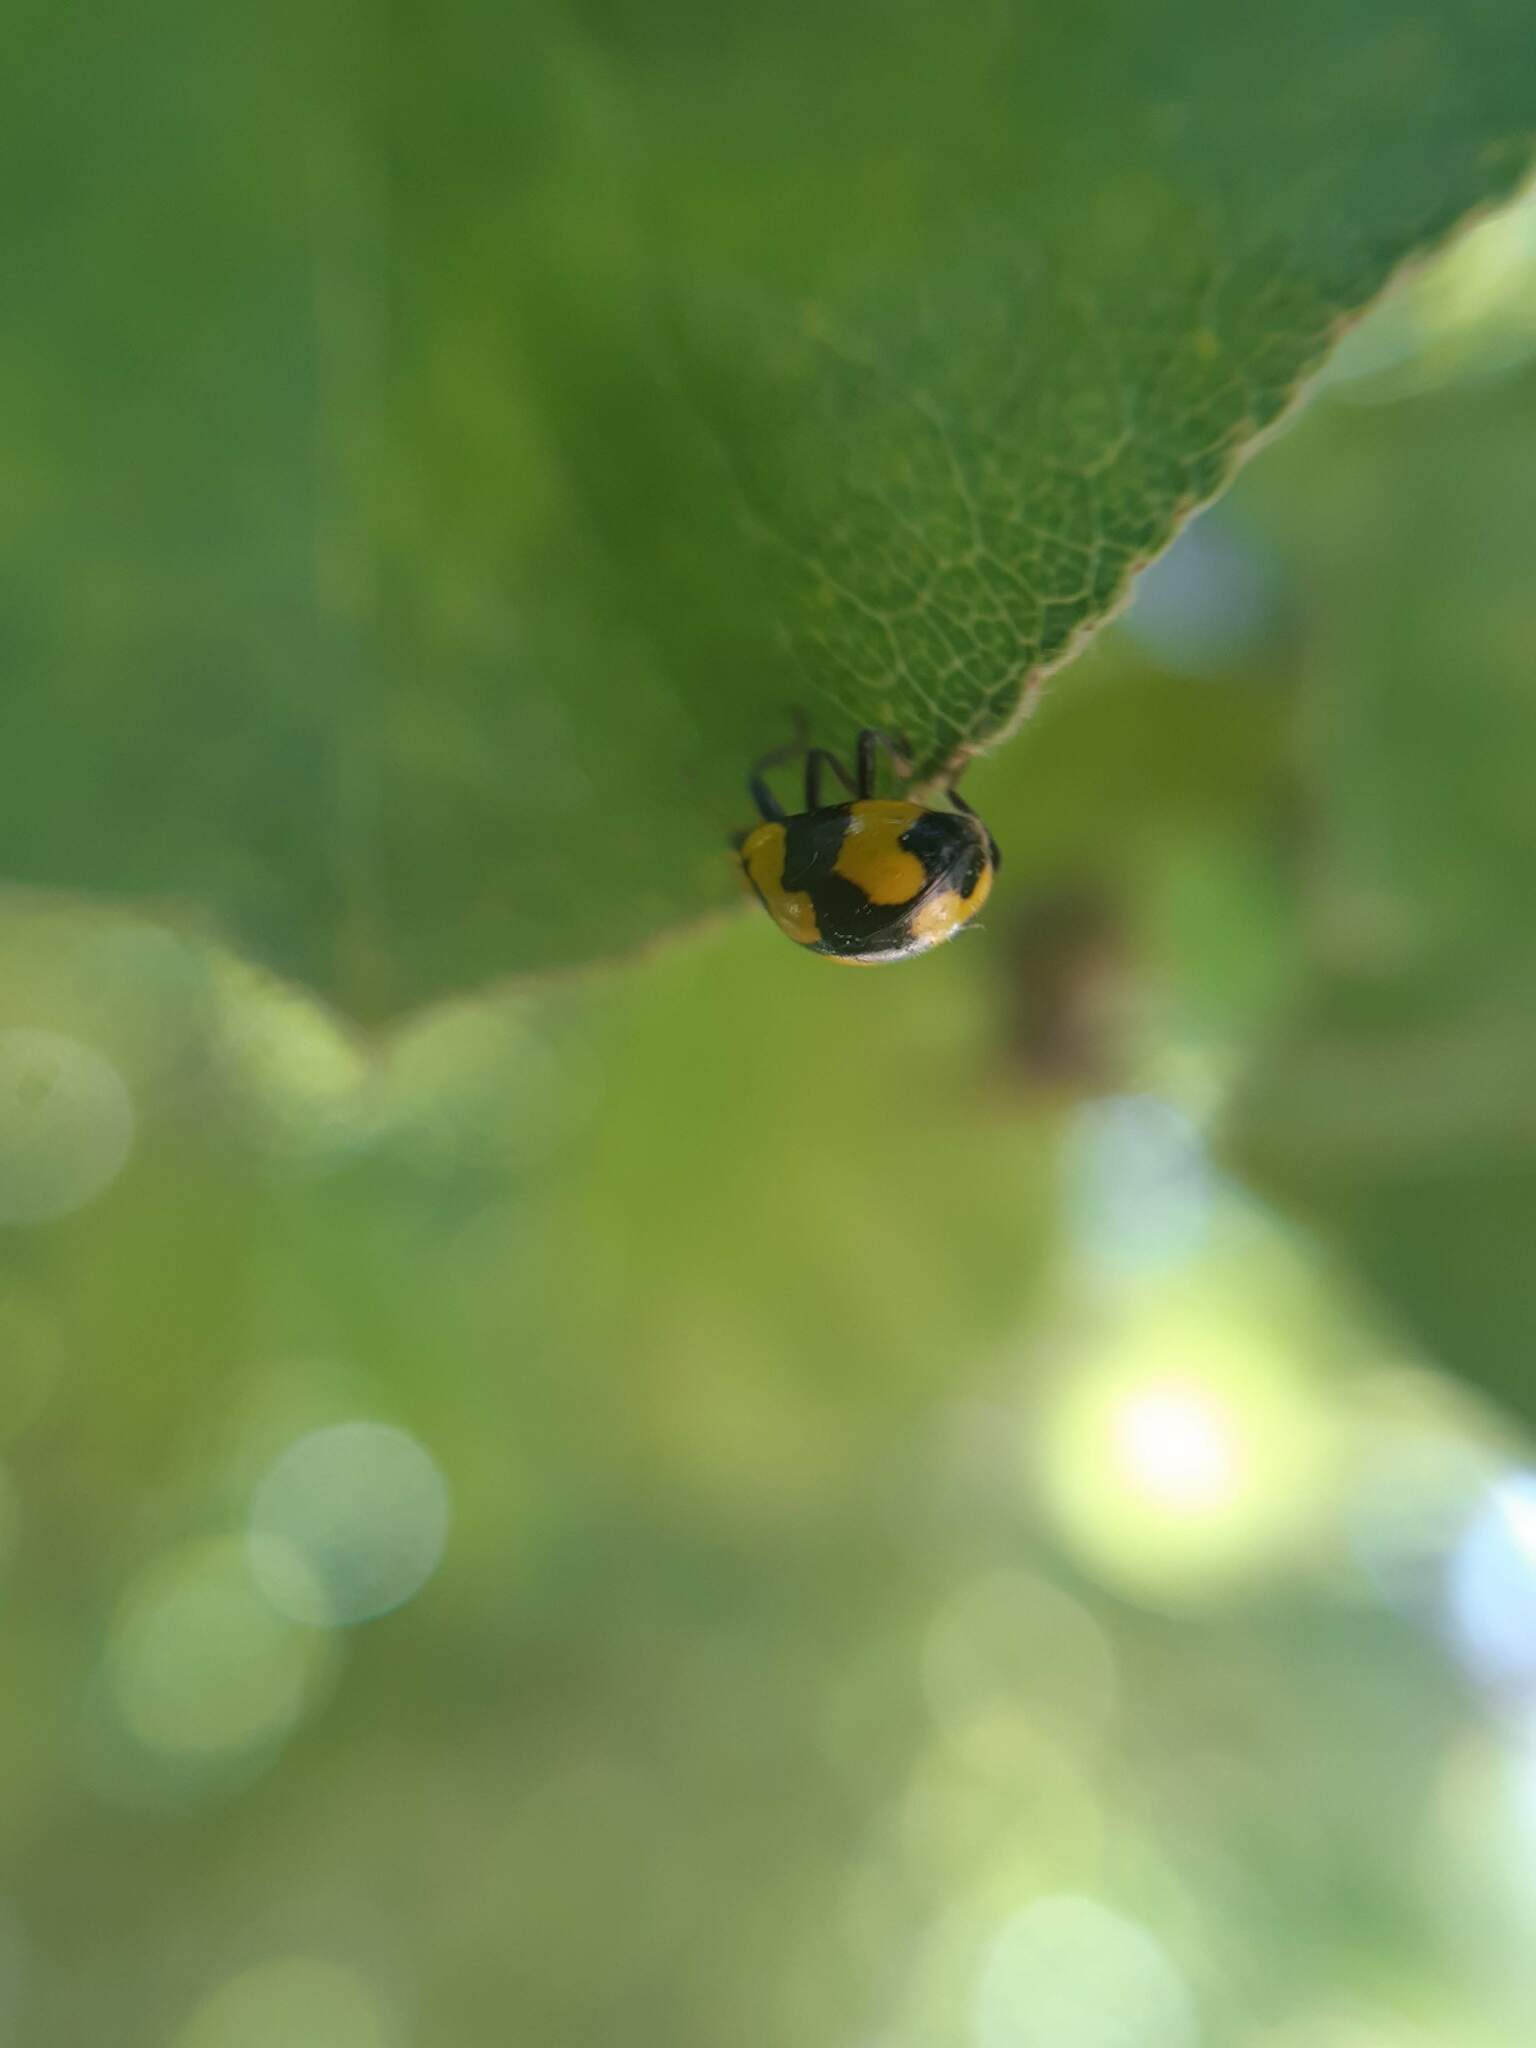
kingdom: Animalia
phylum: Arthropoda
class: Insecta
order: Coleoptera
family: Coccinellidae
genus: Illeis
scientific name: Illeis galbula
